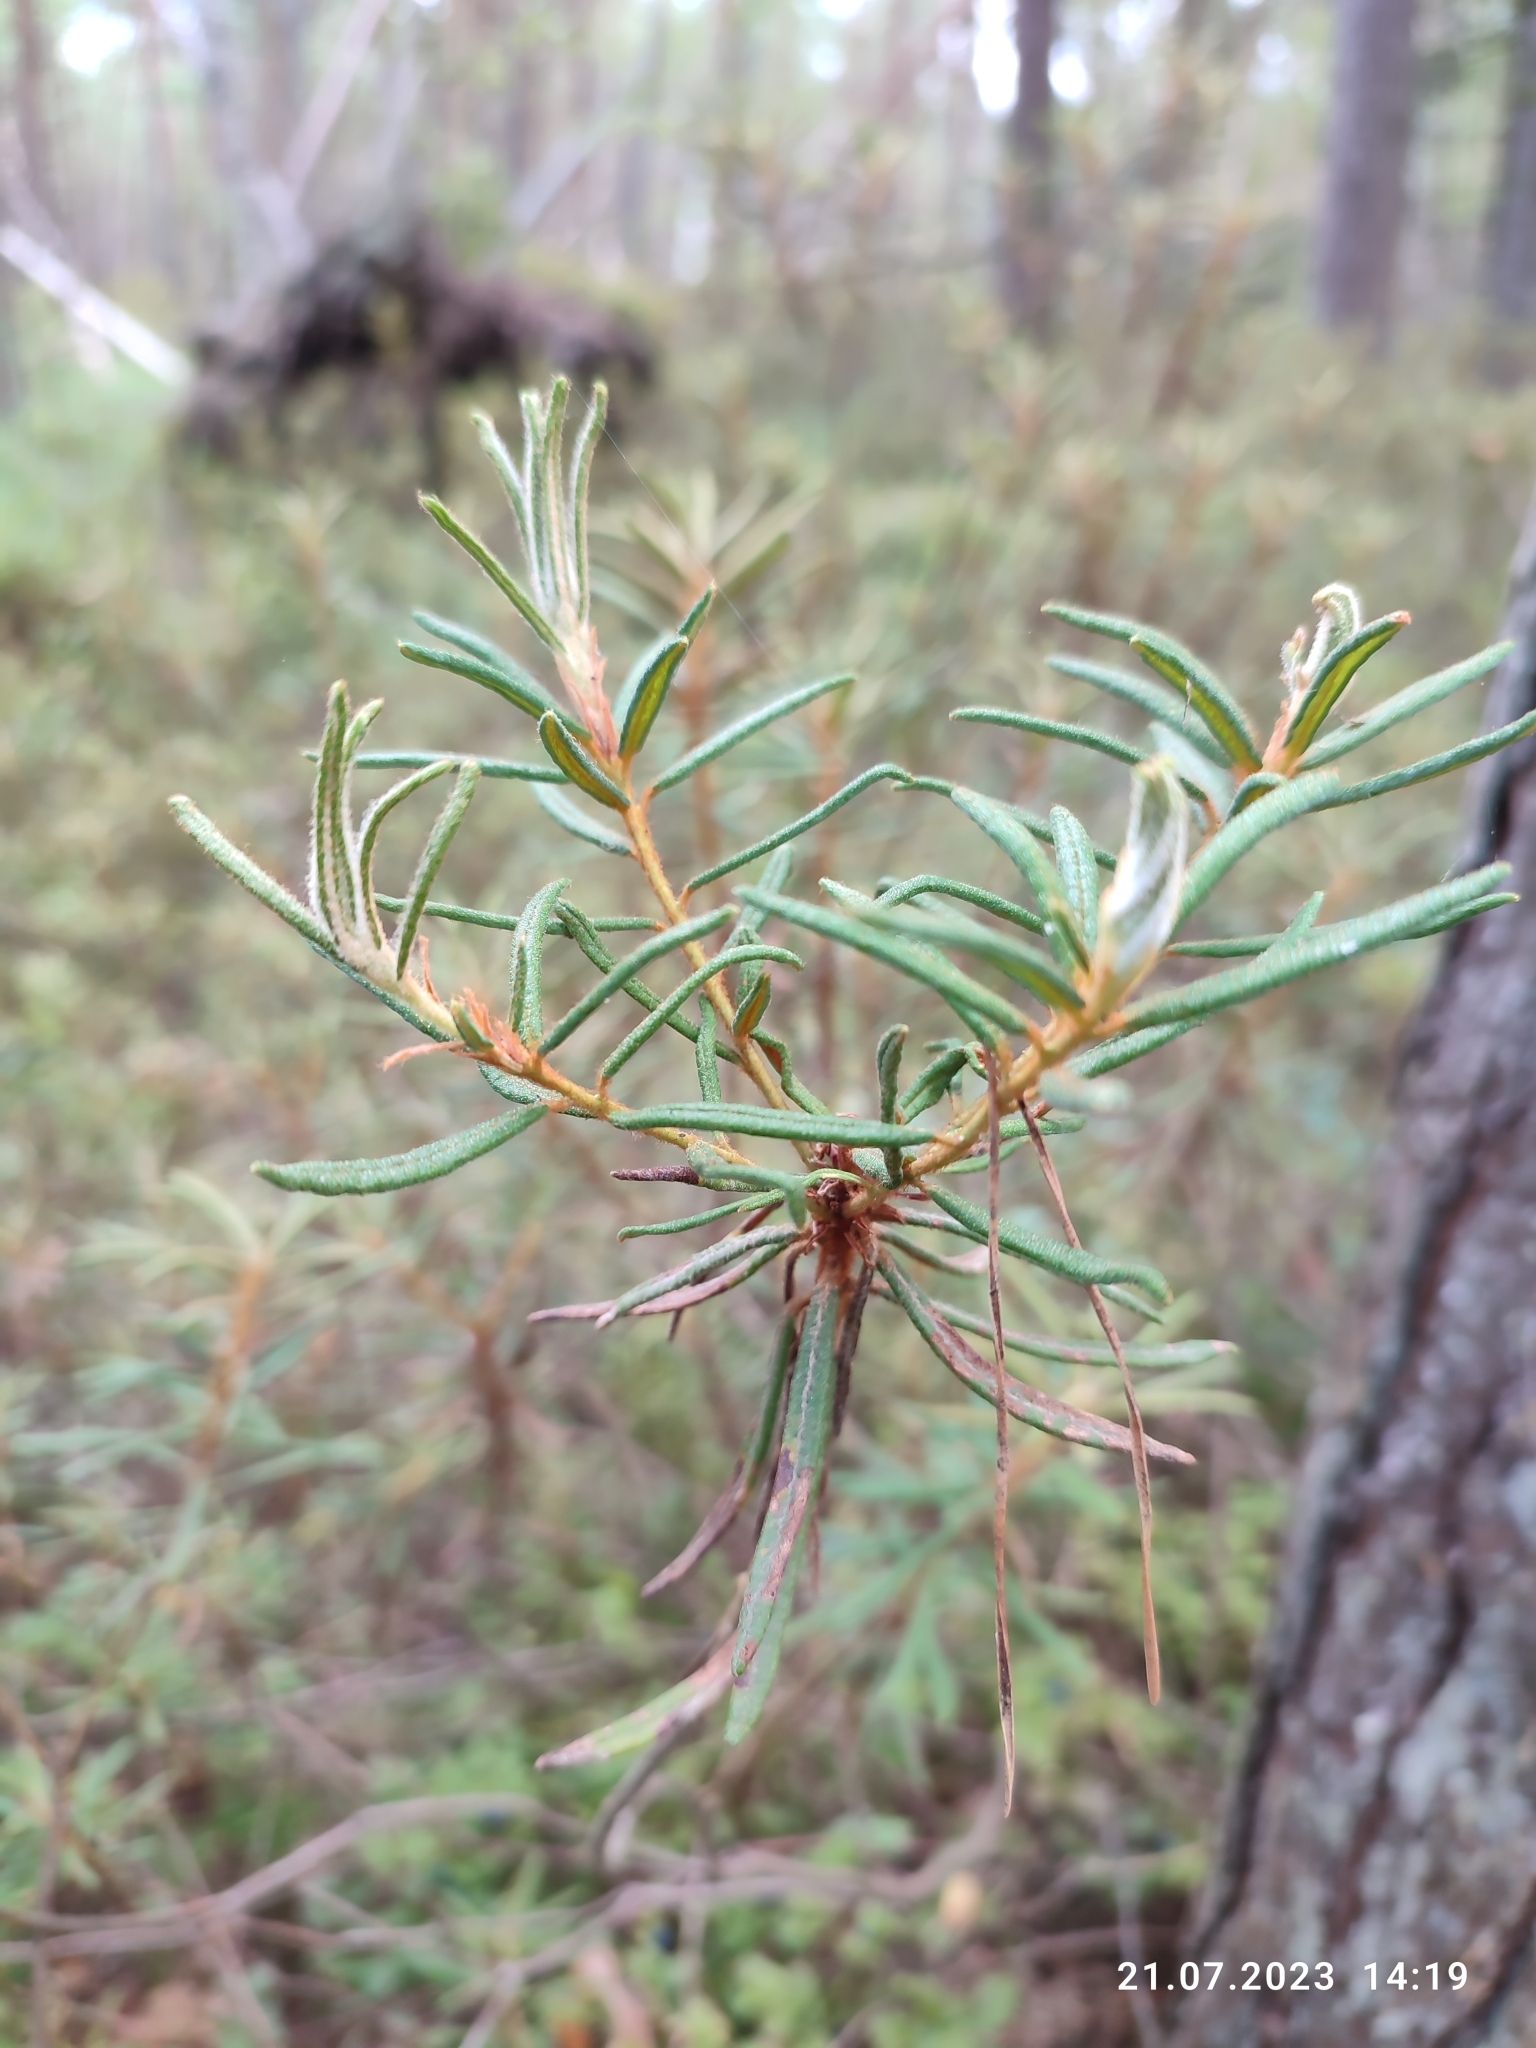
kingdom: Plantae
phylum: Tracheophyta
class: Magnoliopsida
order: Ericales
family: Ericaceae
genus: Rhododendron
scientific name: Rhododendron tomentosum
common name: Marsh labrador tea
